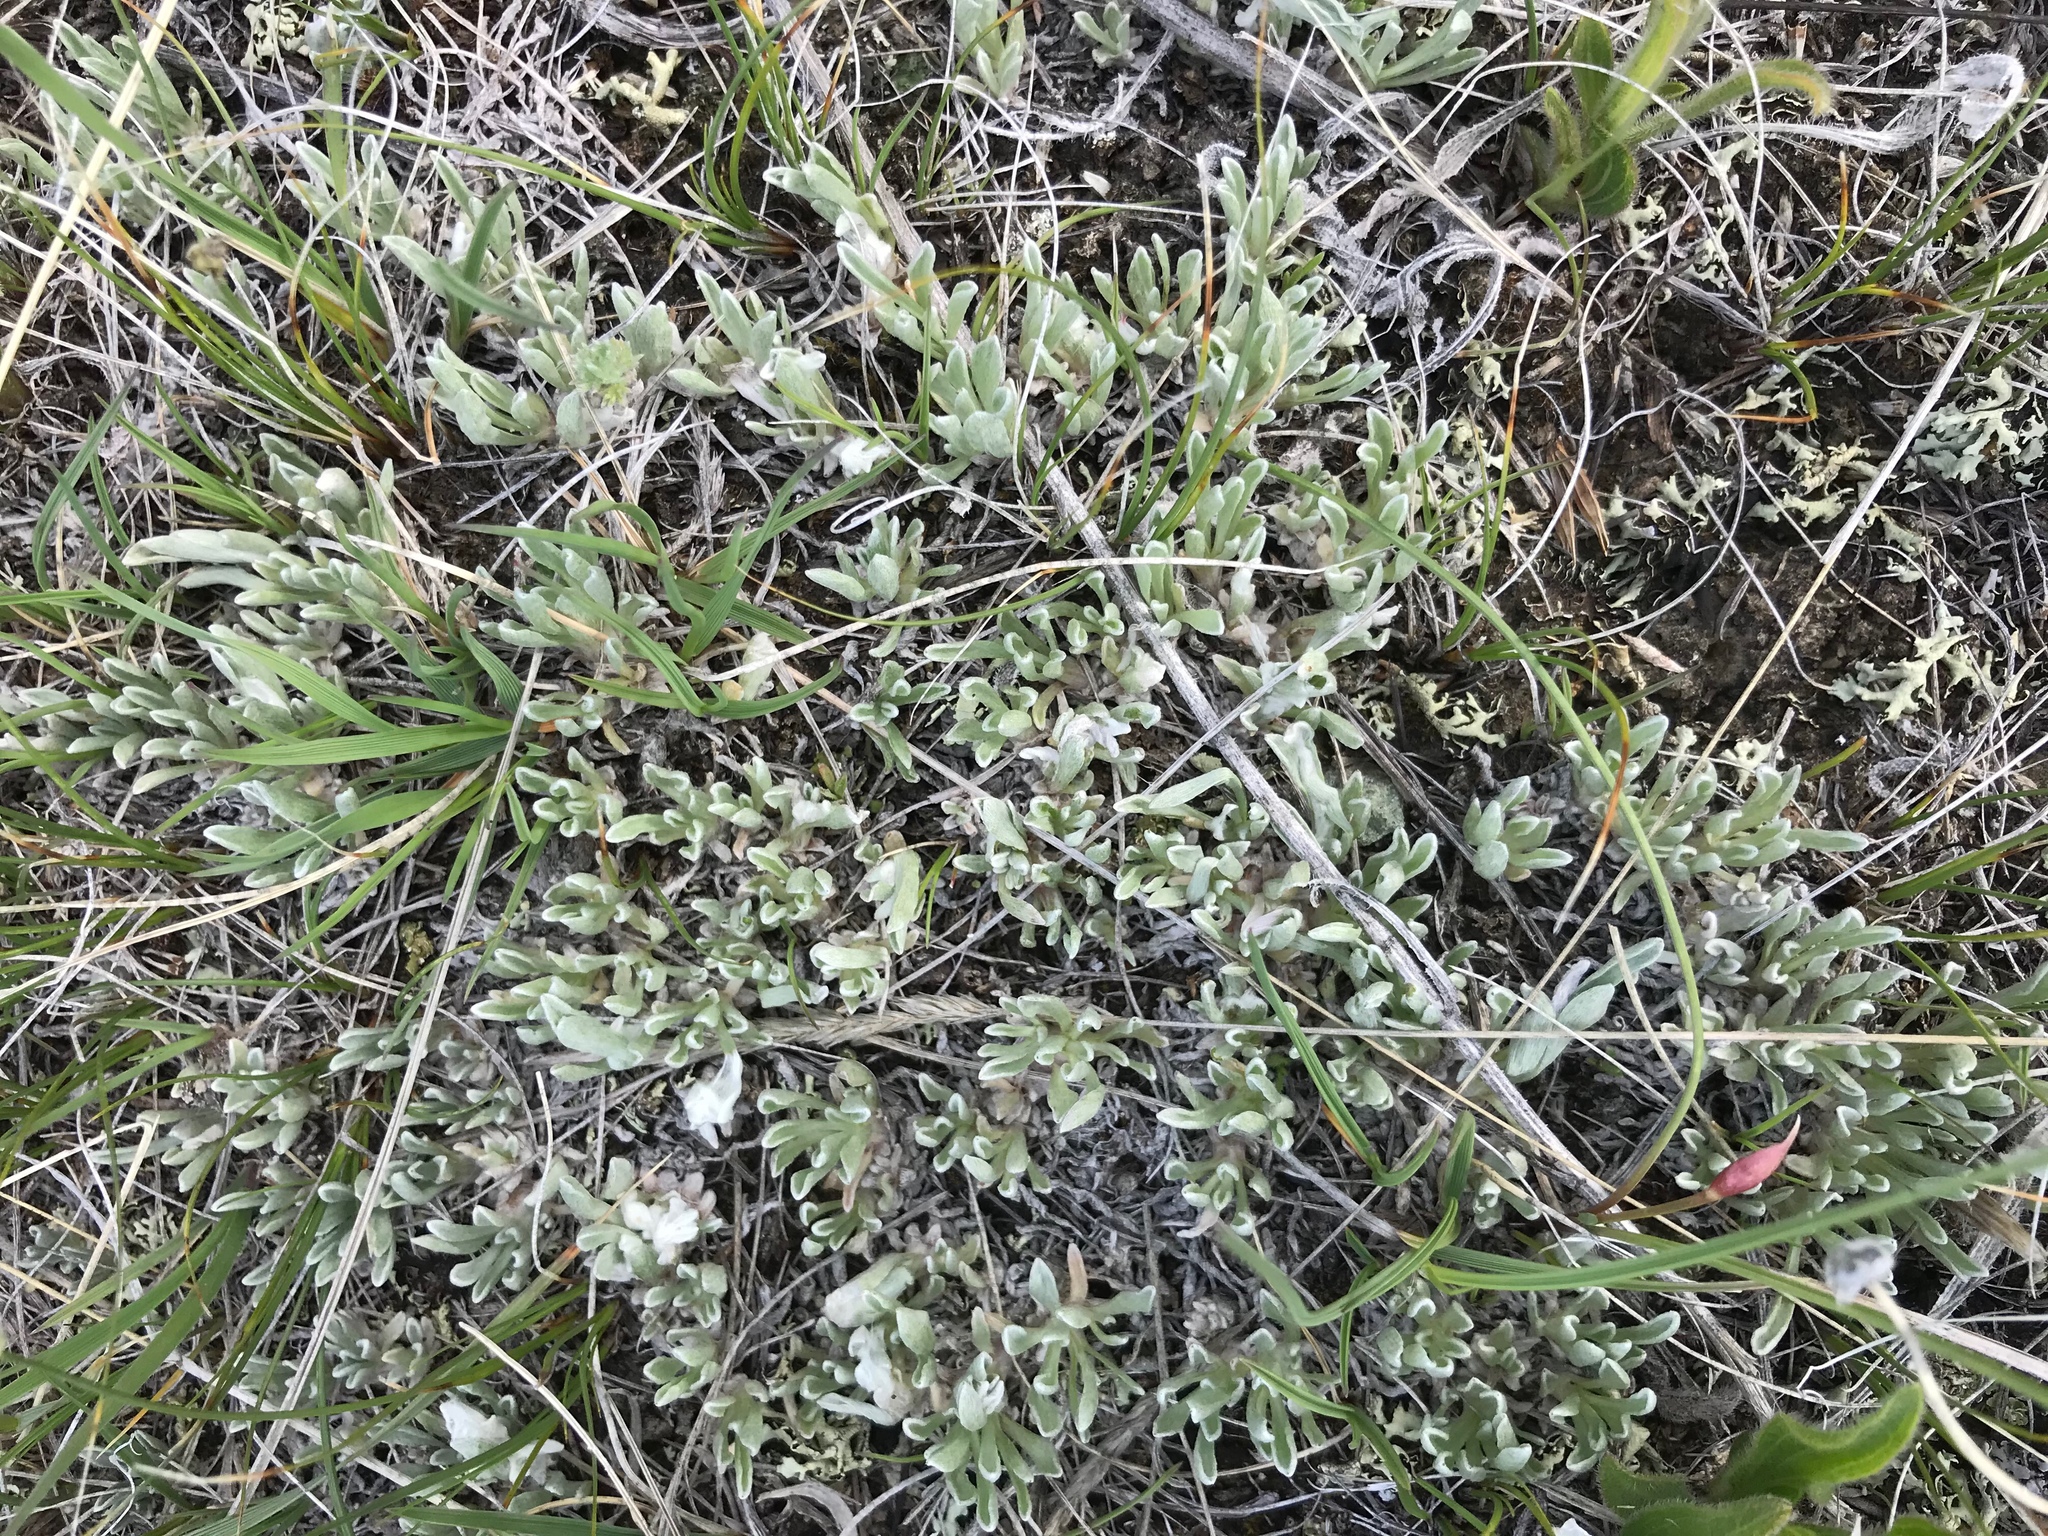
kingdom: Plantae
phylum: Tracheophyta
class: Magnoliopsida
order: Asterales
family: Asteraceae
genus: Antennaria
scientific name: Antennaria dimorpha
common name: Cushion pussytoes
